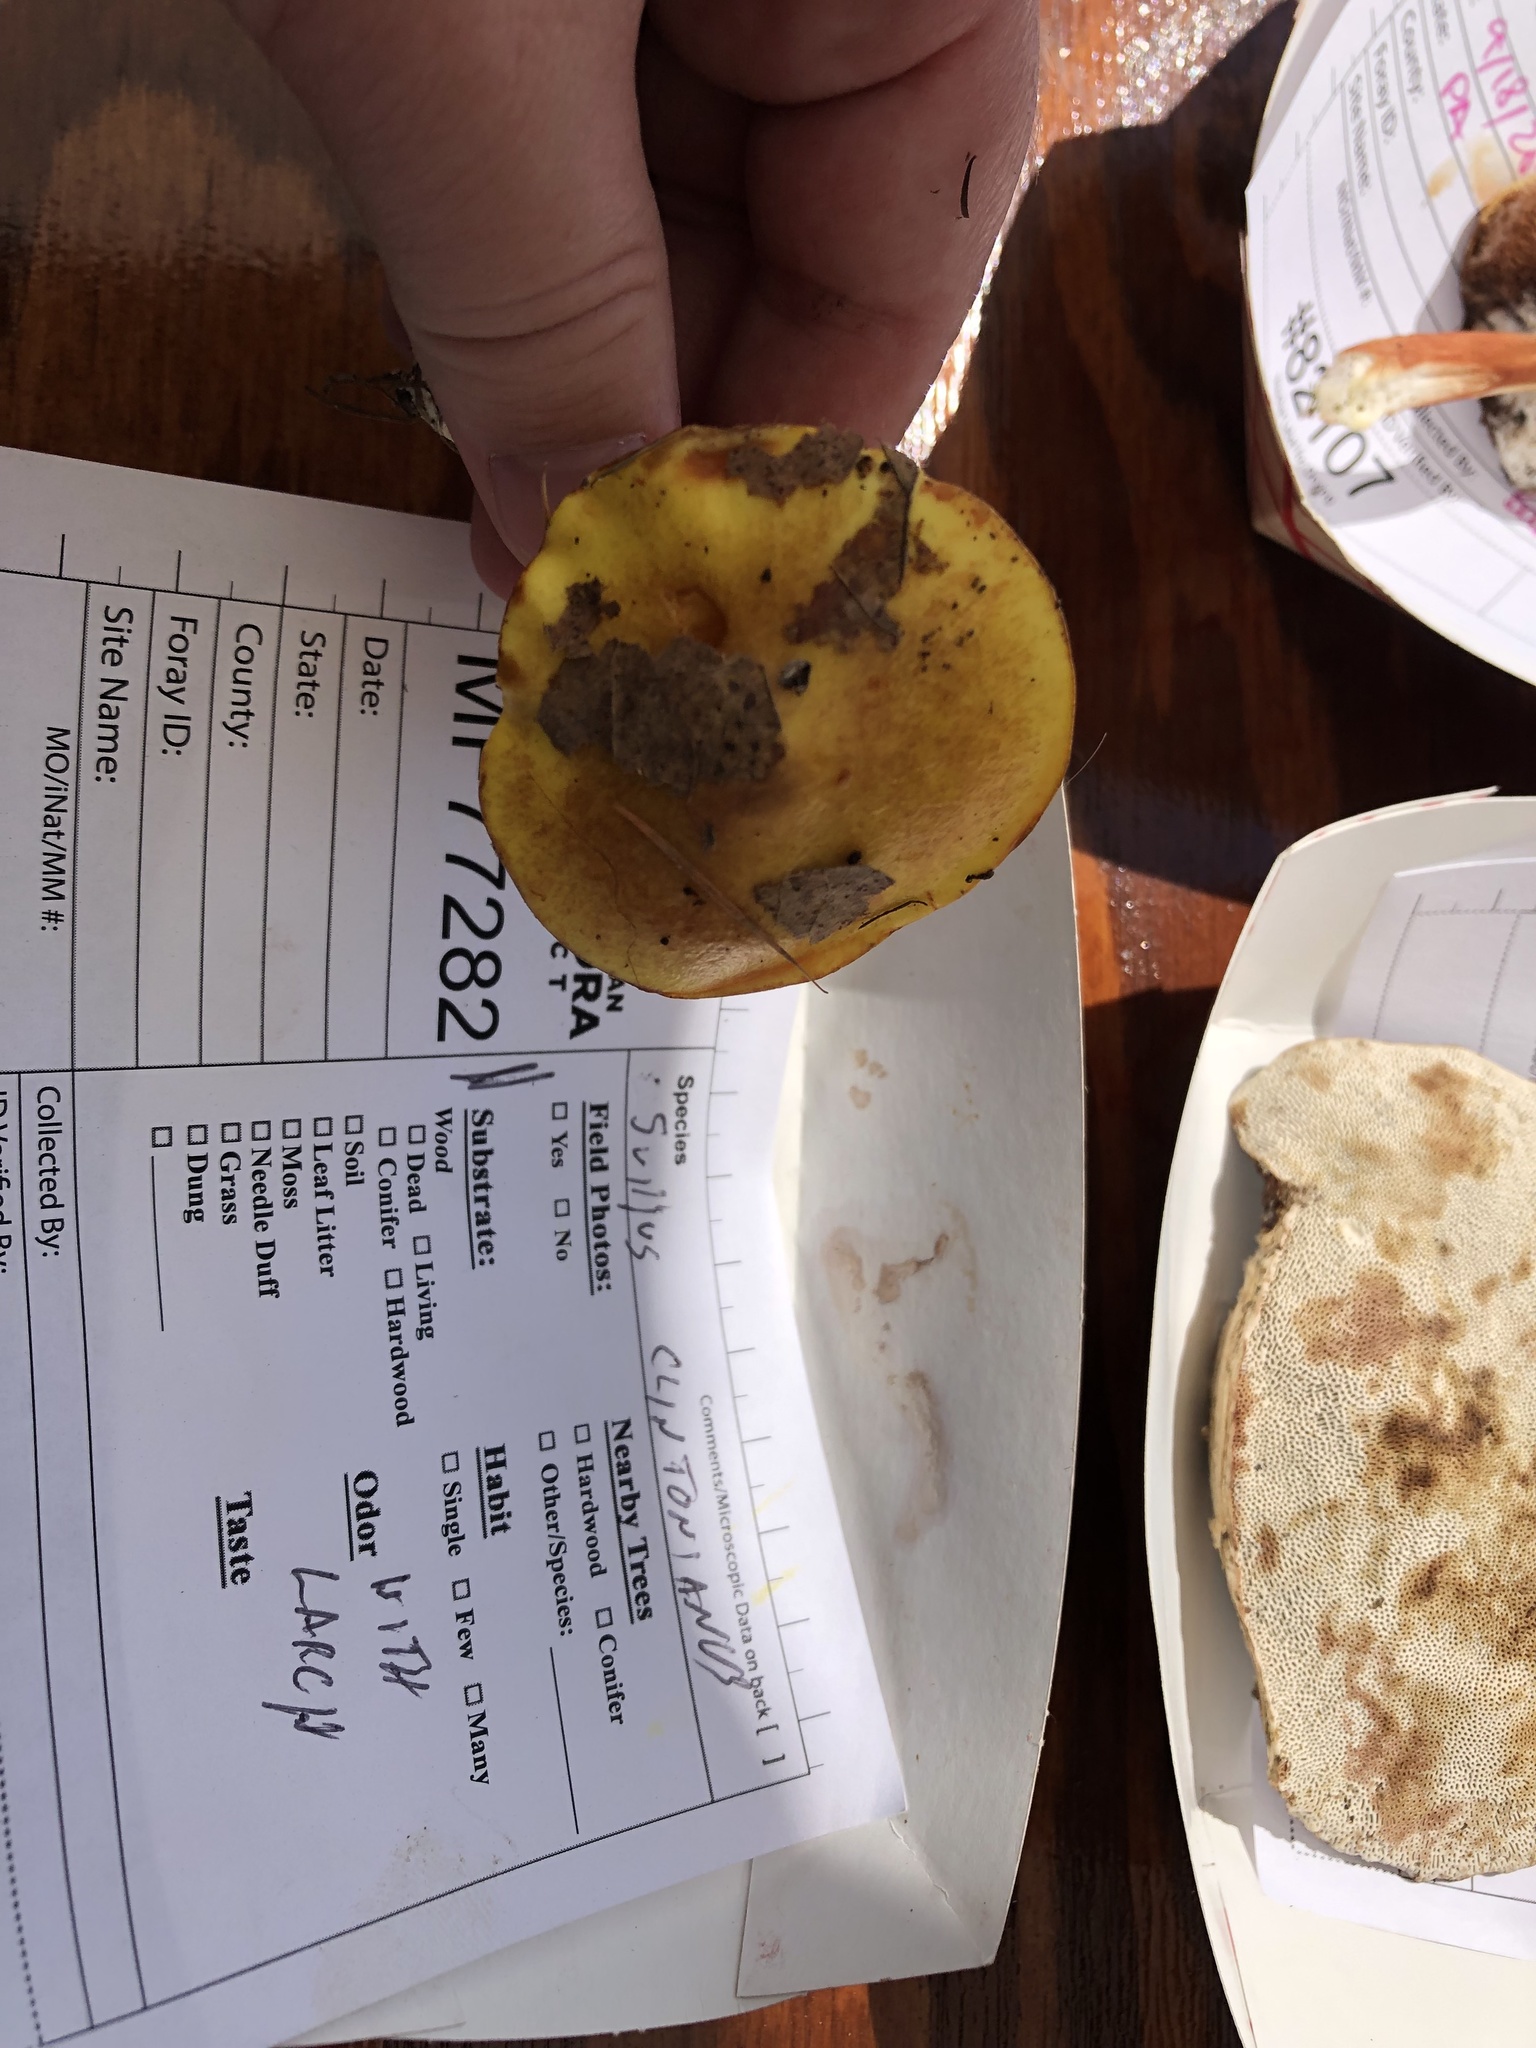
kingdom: Fungi
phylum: Basidiomycota
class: Agaricomycetes
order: Boletales
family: Suillaceae
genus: Suillus
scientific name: Suillus grevillei
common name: Larch bolete
